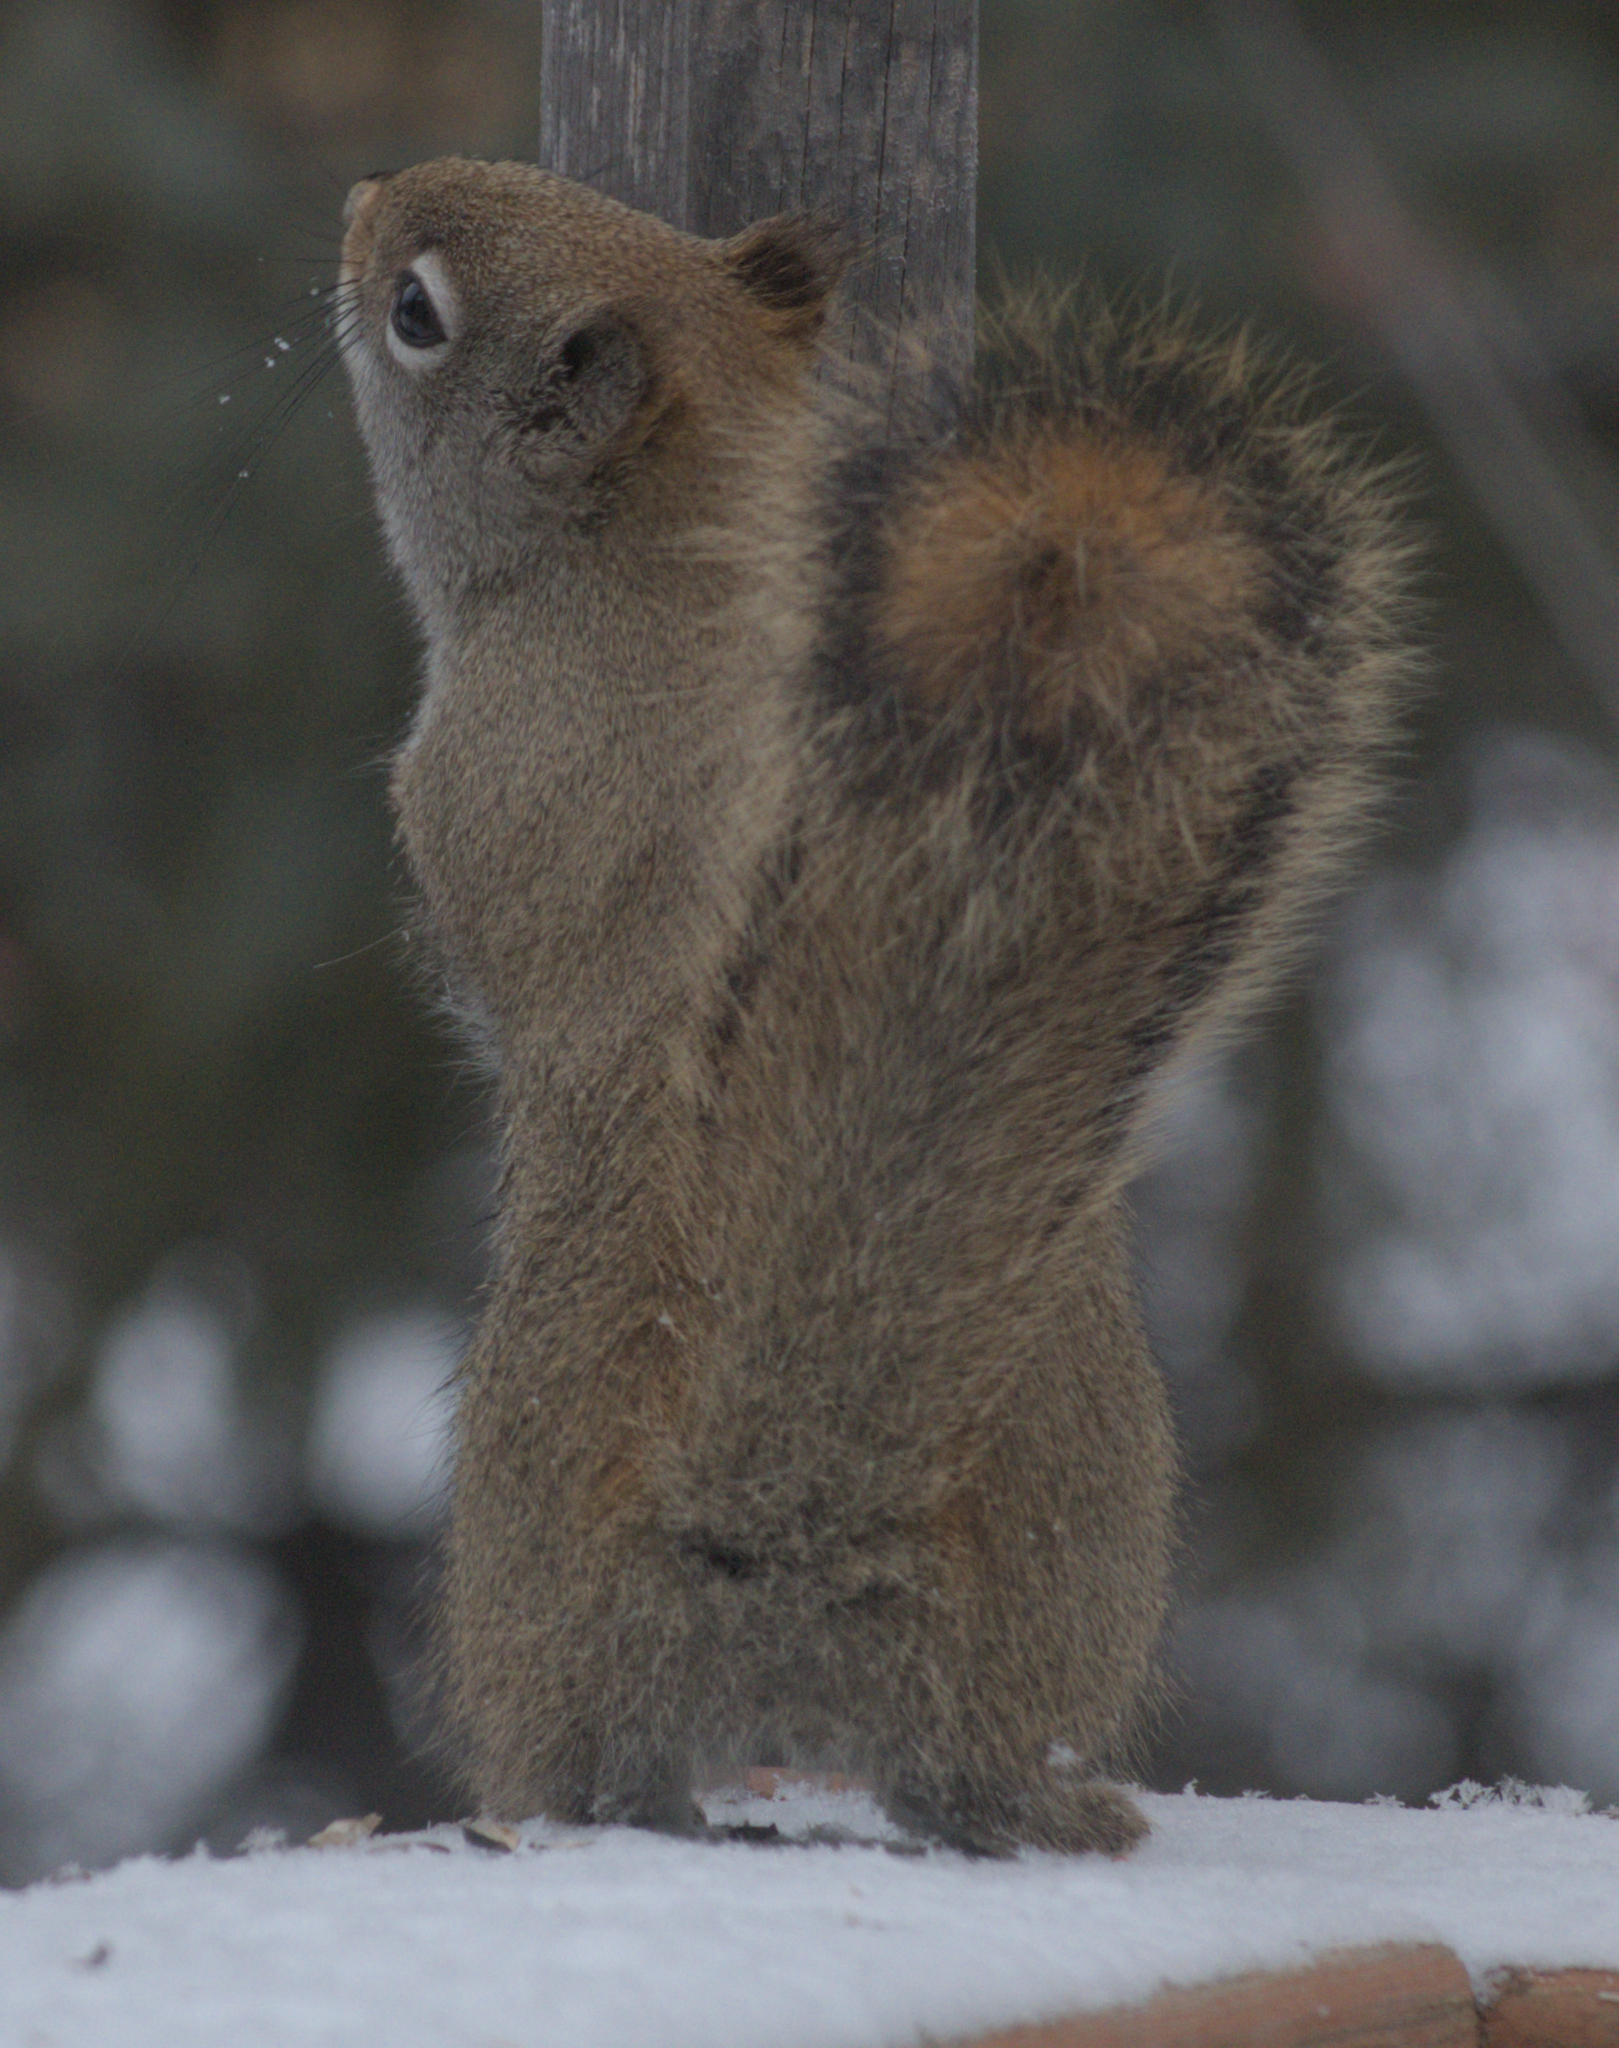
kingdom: Animalia
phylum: Chordata
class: Mammalia
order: Rodentia
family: Sciuridae
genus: Tamiasciurus
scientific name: Tamiasciurus hudsonicus
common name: Red squirrel
